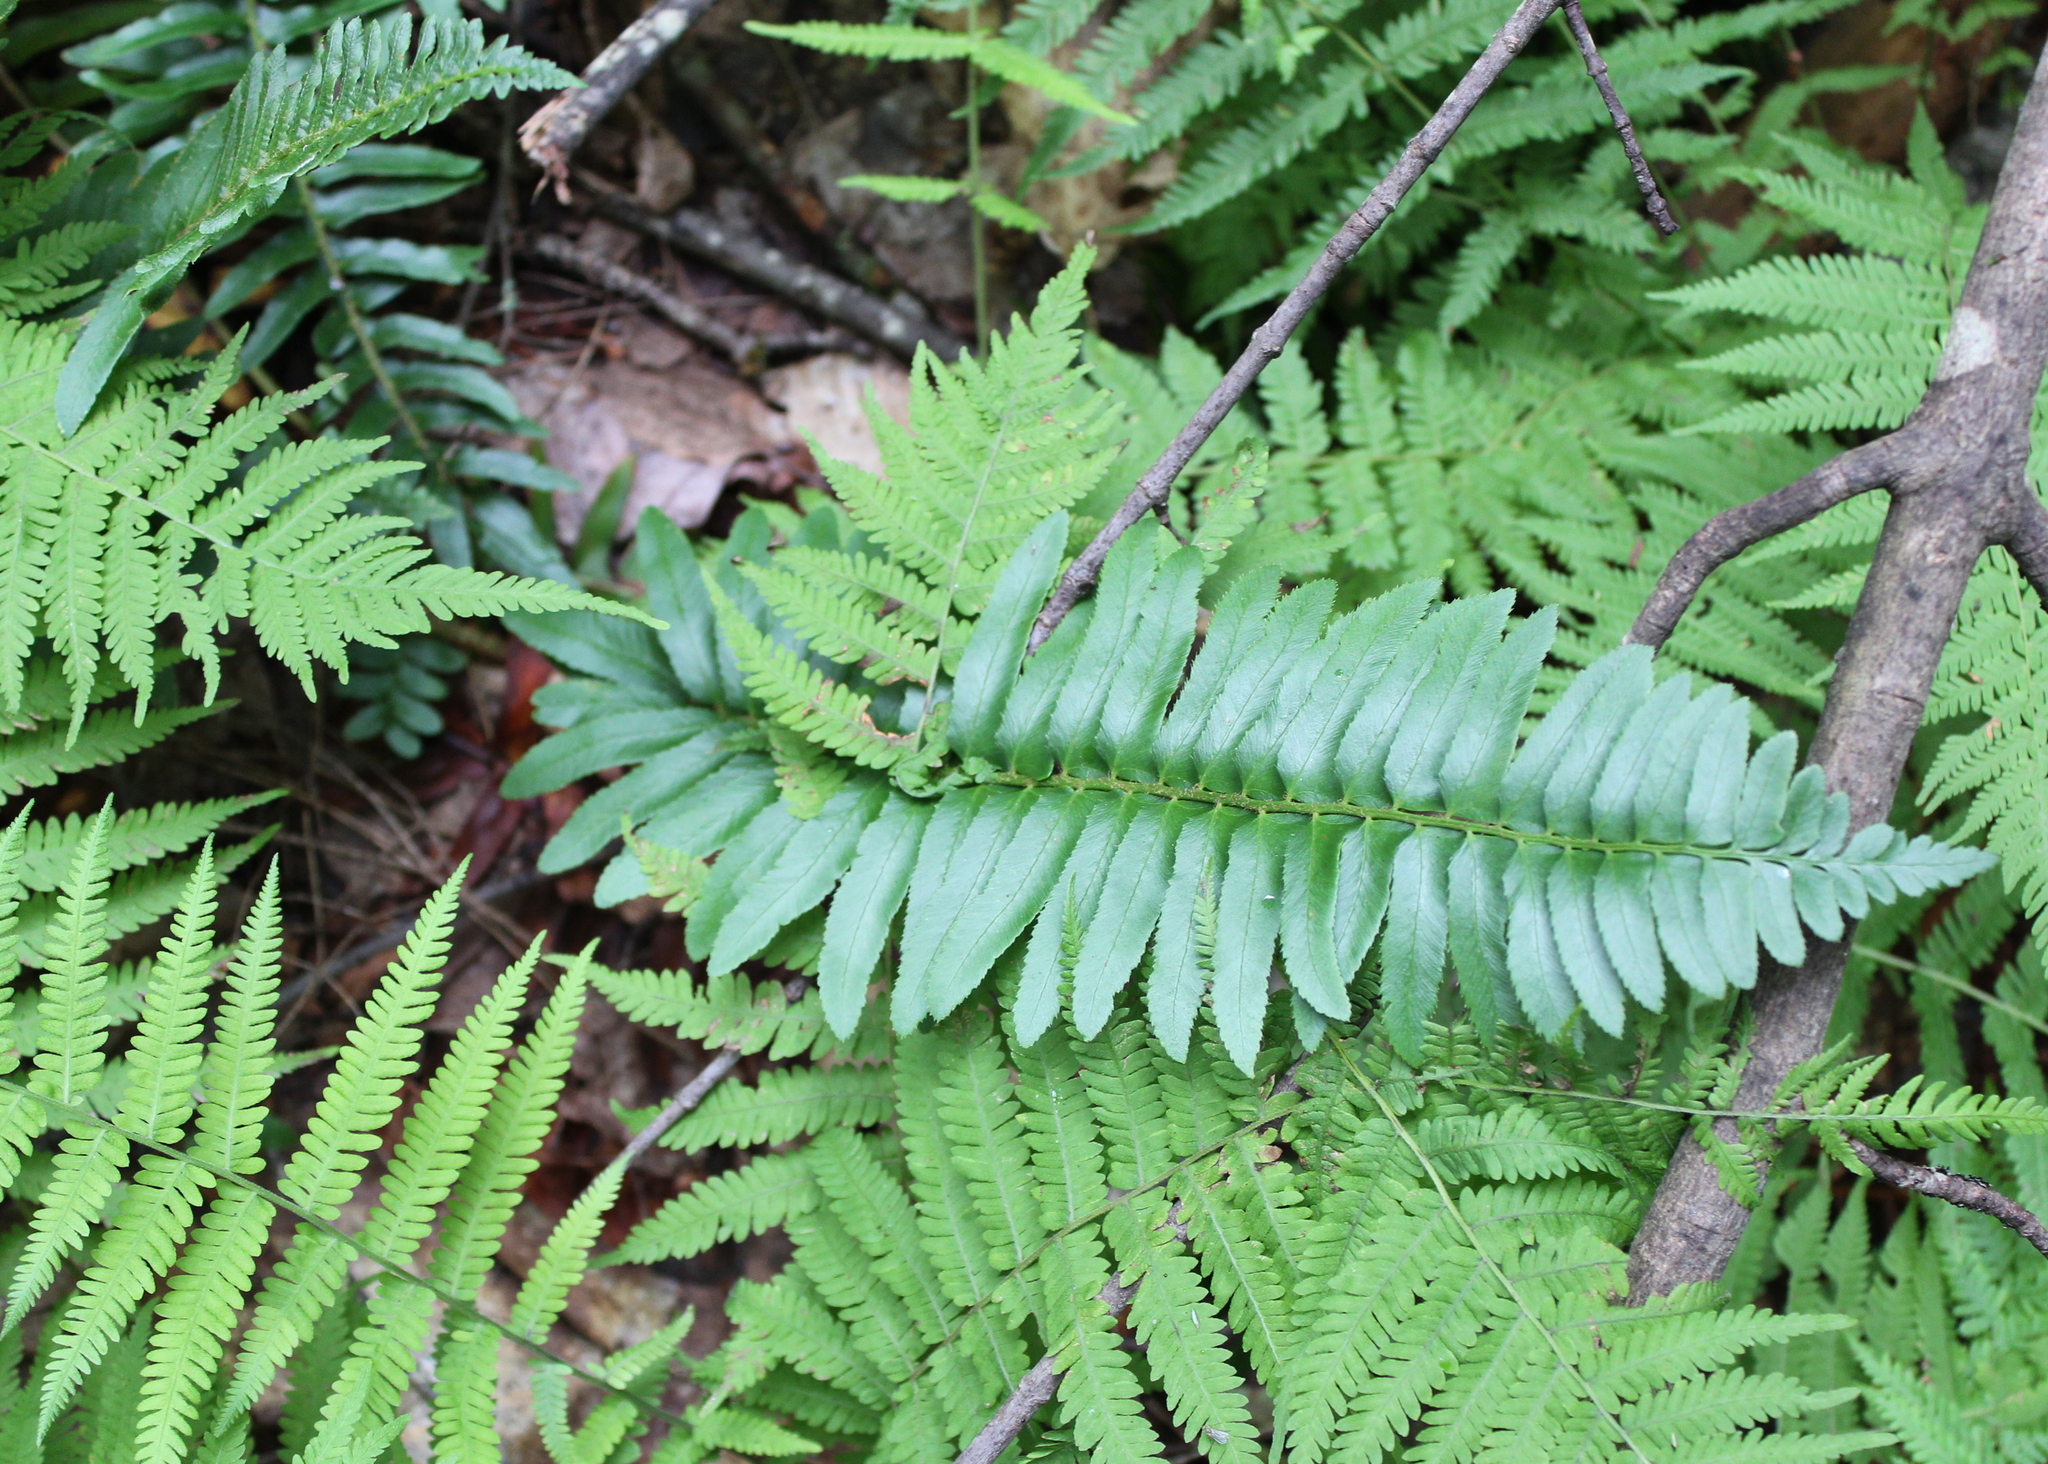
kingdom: Plantae
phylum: Tracheophyta
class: Polypodiopsida
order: Polypodiales
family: Dryopteridaceae
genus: Polystichum
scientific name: Polystichum acrostichoides
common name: Christmas fern
